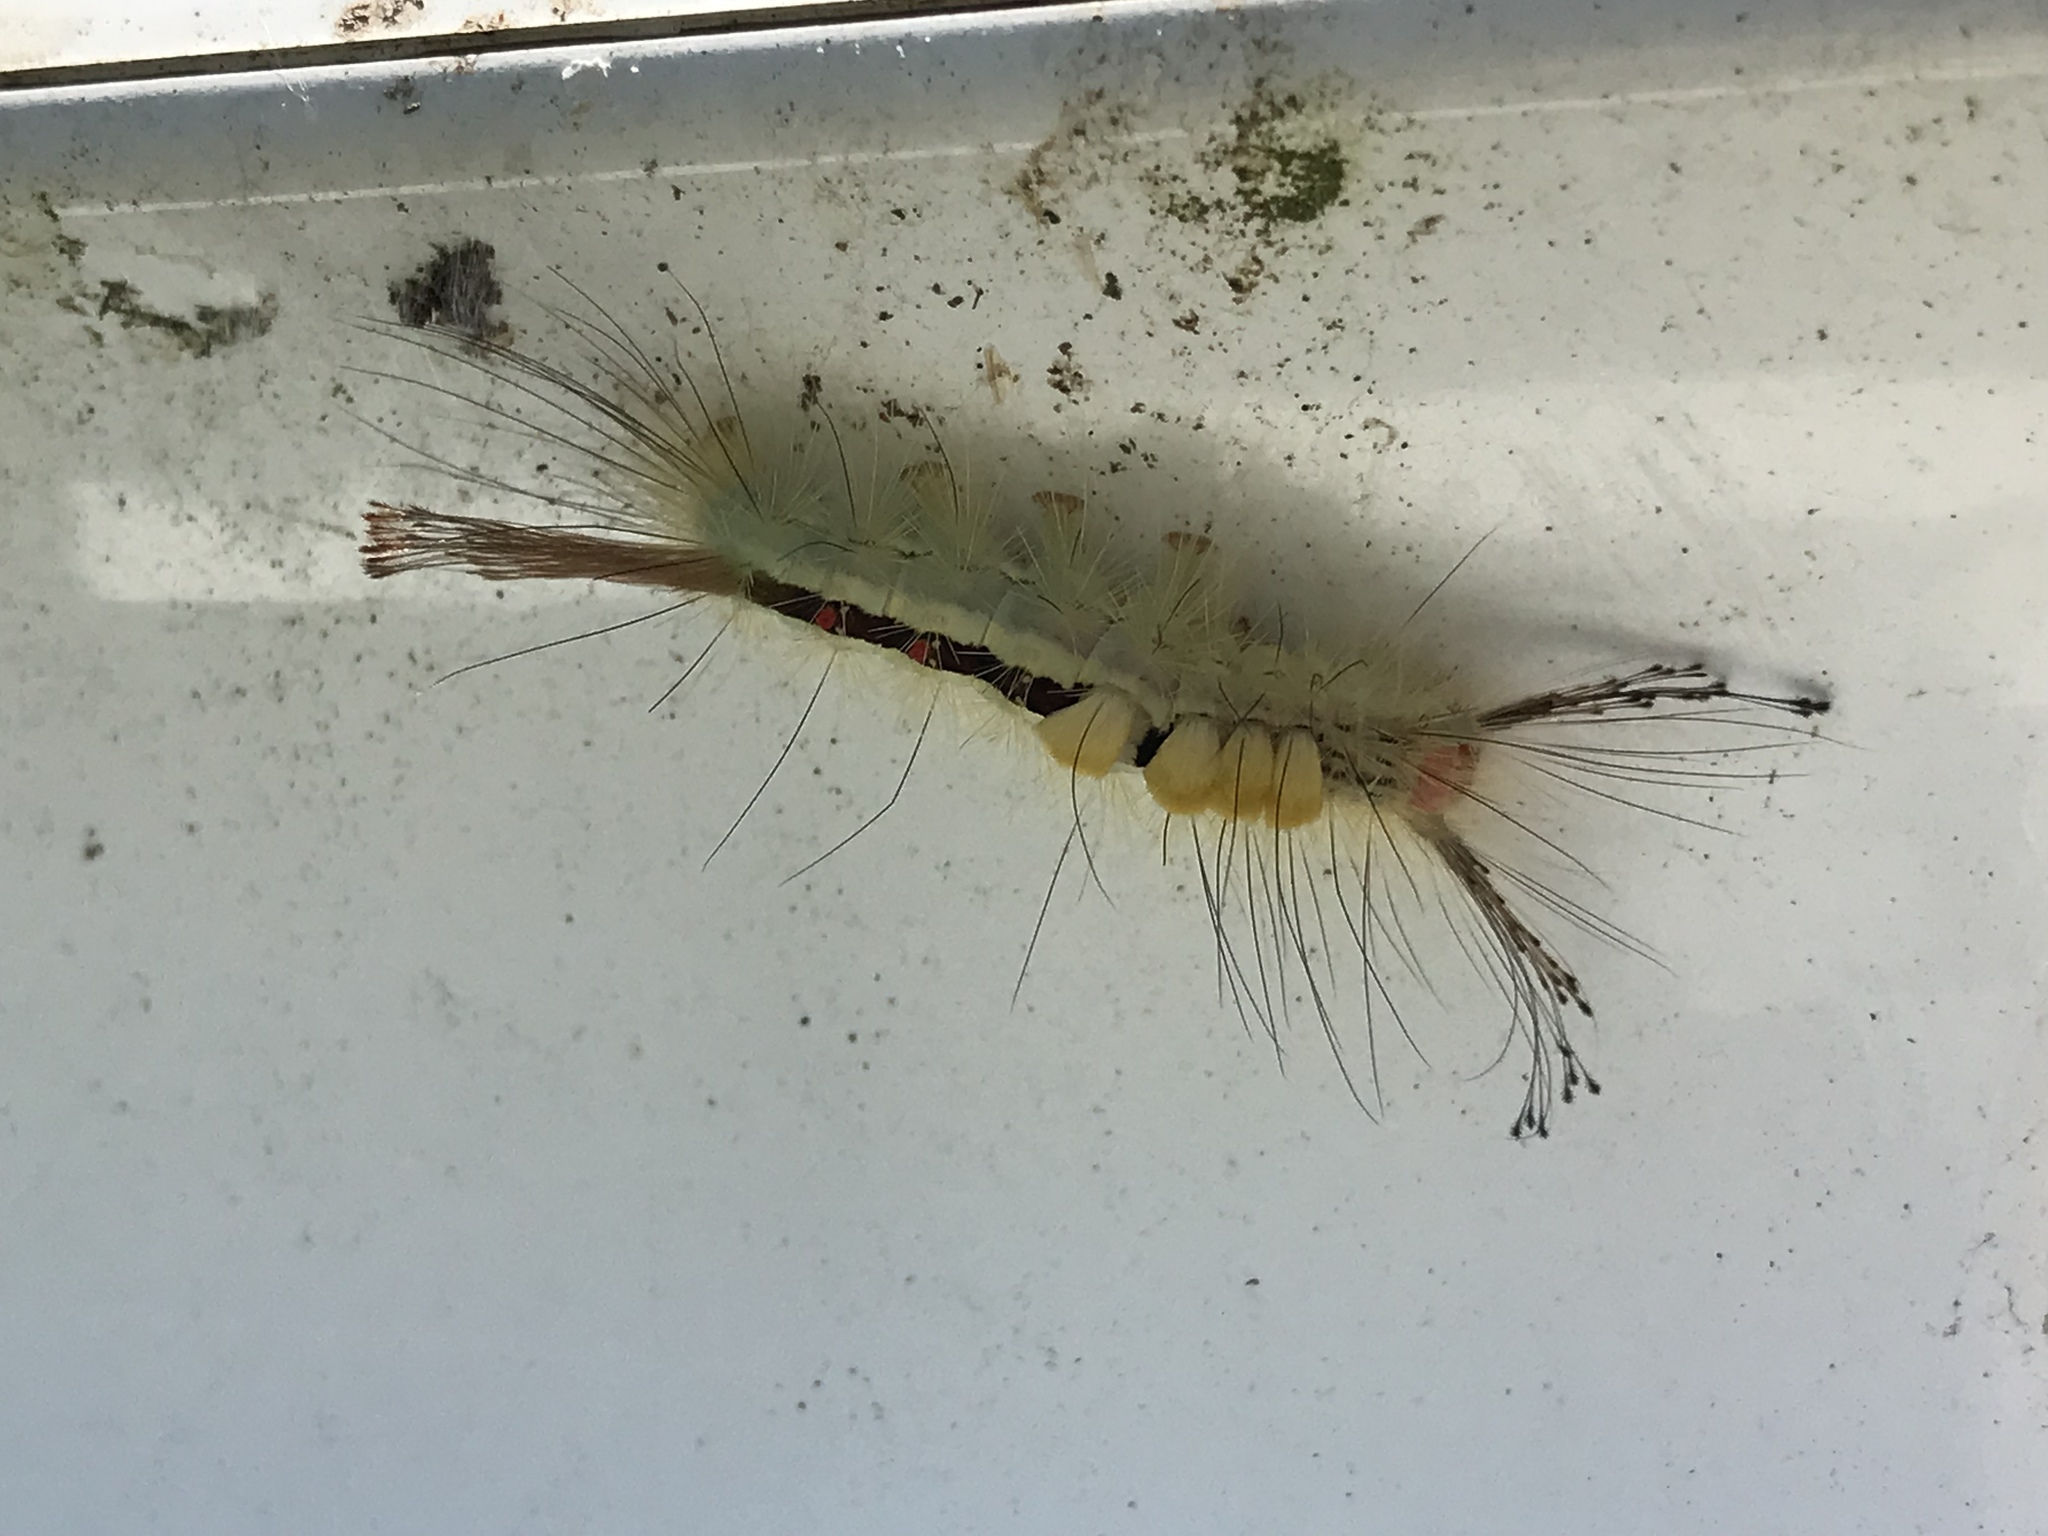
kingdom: Animalia
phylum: Arthropoda
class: Insecta
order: Lepidoptera
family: Erebidae
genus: Orgyia
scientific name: Orgyia leucostigma
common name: White-marked tussock moth
